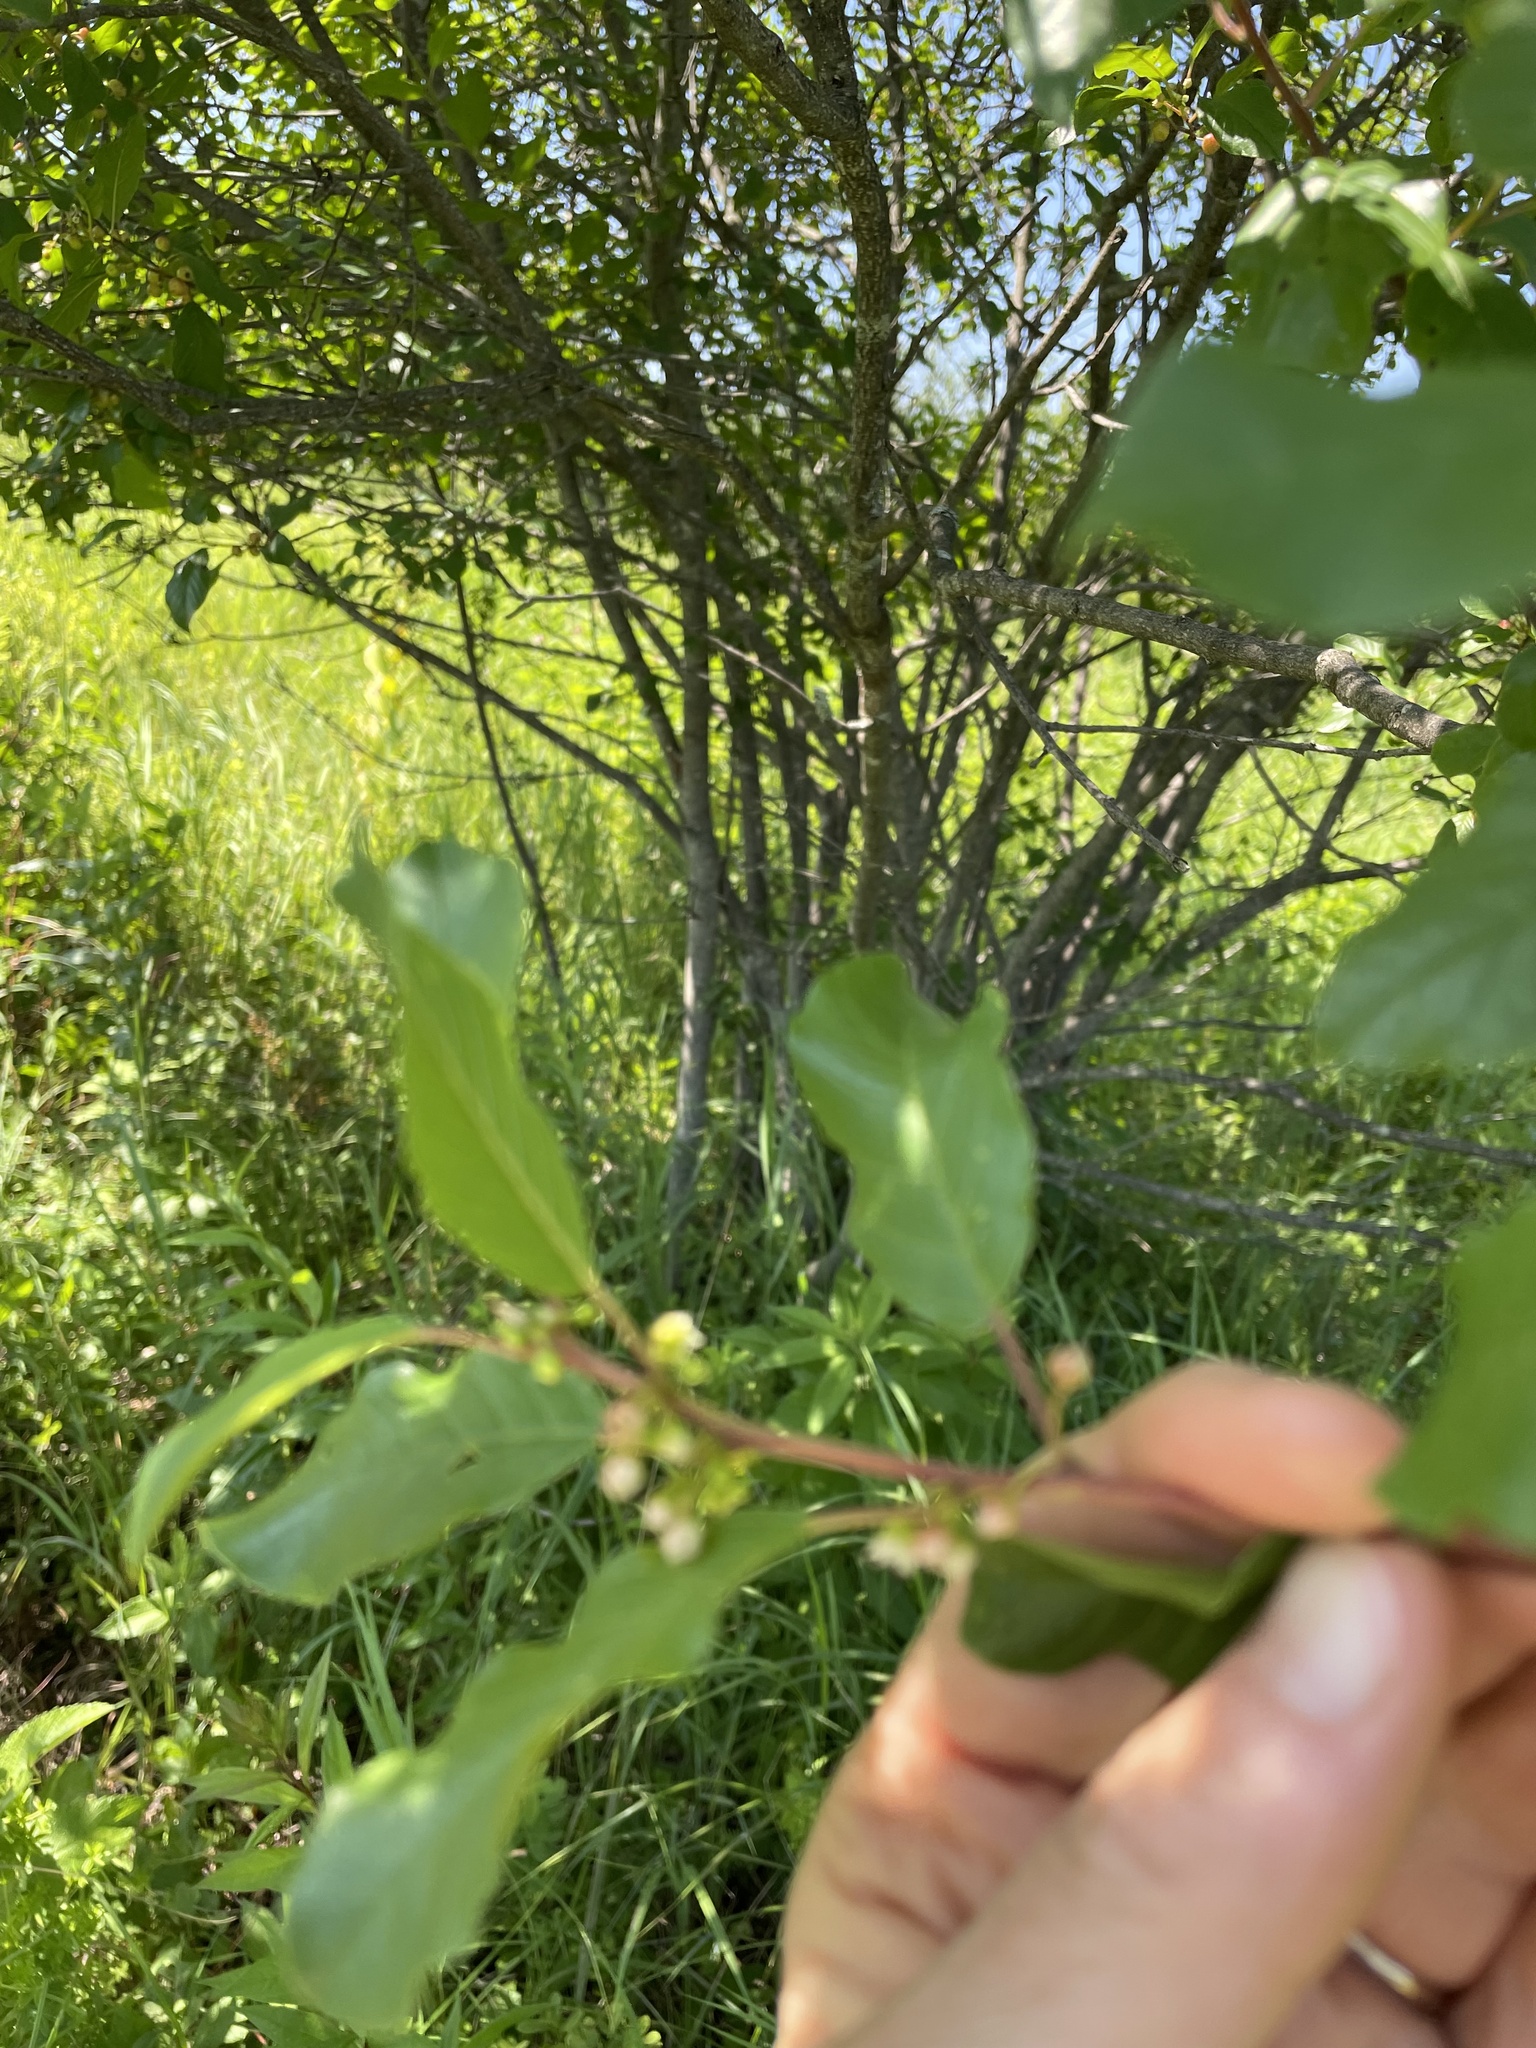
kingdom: Plantae
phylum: Tracheophyta
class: Magnoliopsida
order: Rosales
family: Rhamnaceae
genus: Frangula
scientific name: Frangula alnus
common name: Alder buckthorn
